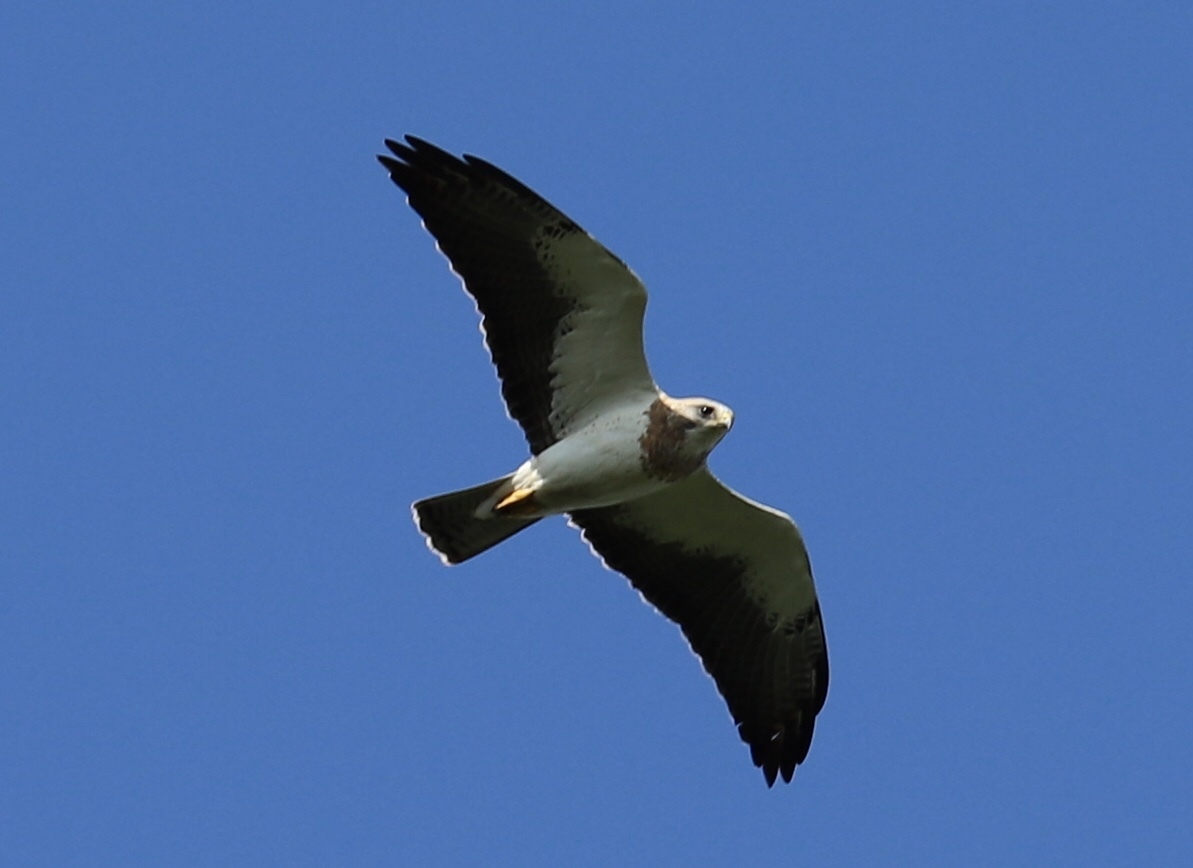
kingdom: Animalia
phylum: Chordata
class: Aves
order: Accipitriformes
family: Accipitridae
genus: Buteo
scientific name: Buteo swainsoni
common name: Swainson's hawk
